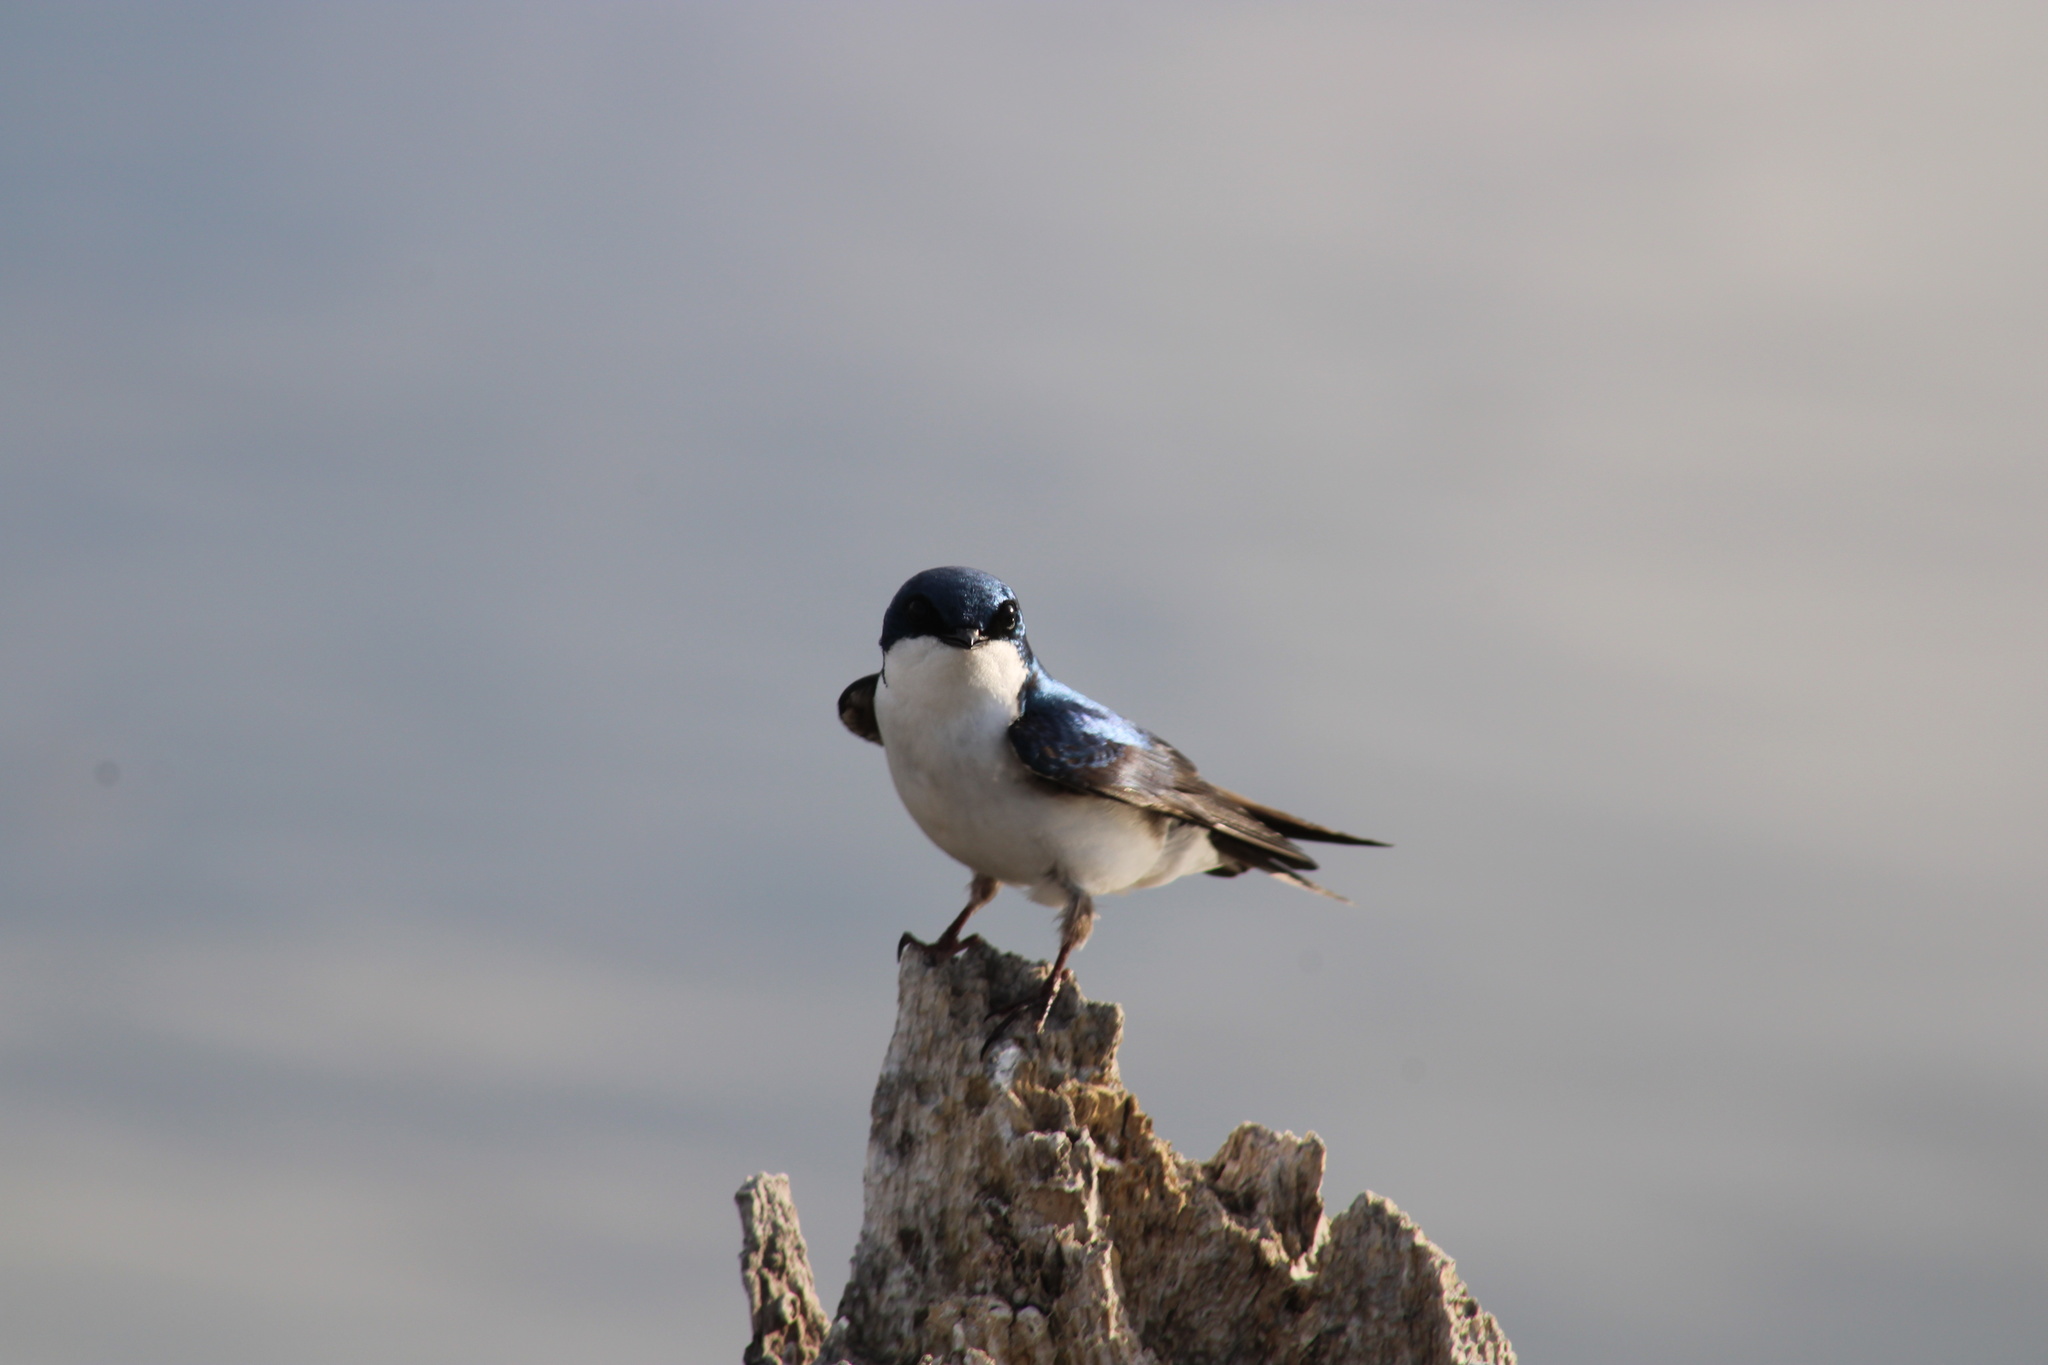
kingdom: Animalia
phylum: Chordata
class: Aves
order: Passeriformes
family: Hirundinidae
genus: Tachycineta
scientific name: Tachycineta bicolor
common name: Tree swallow
